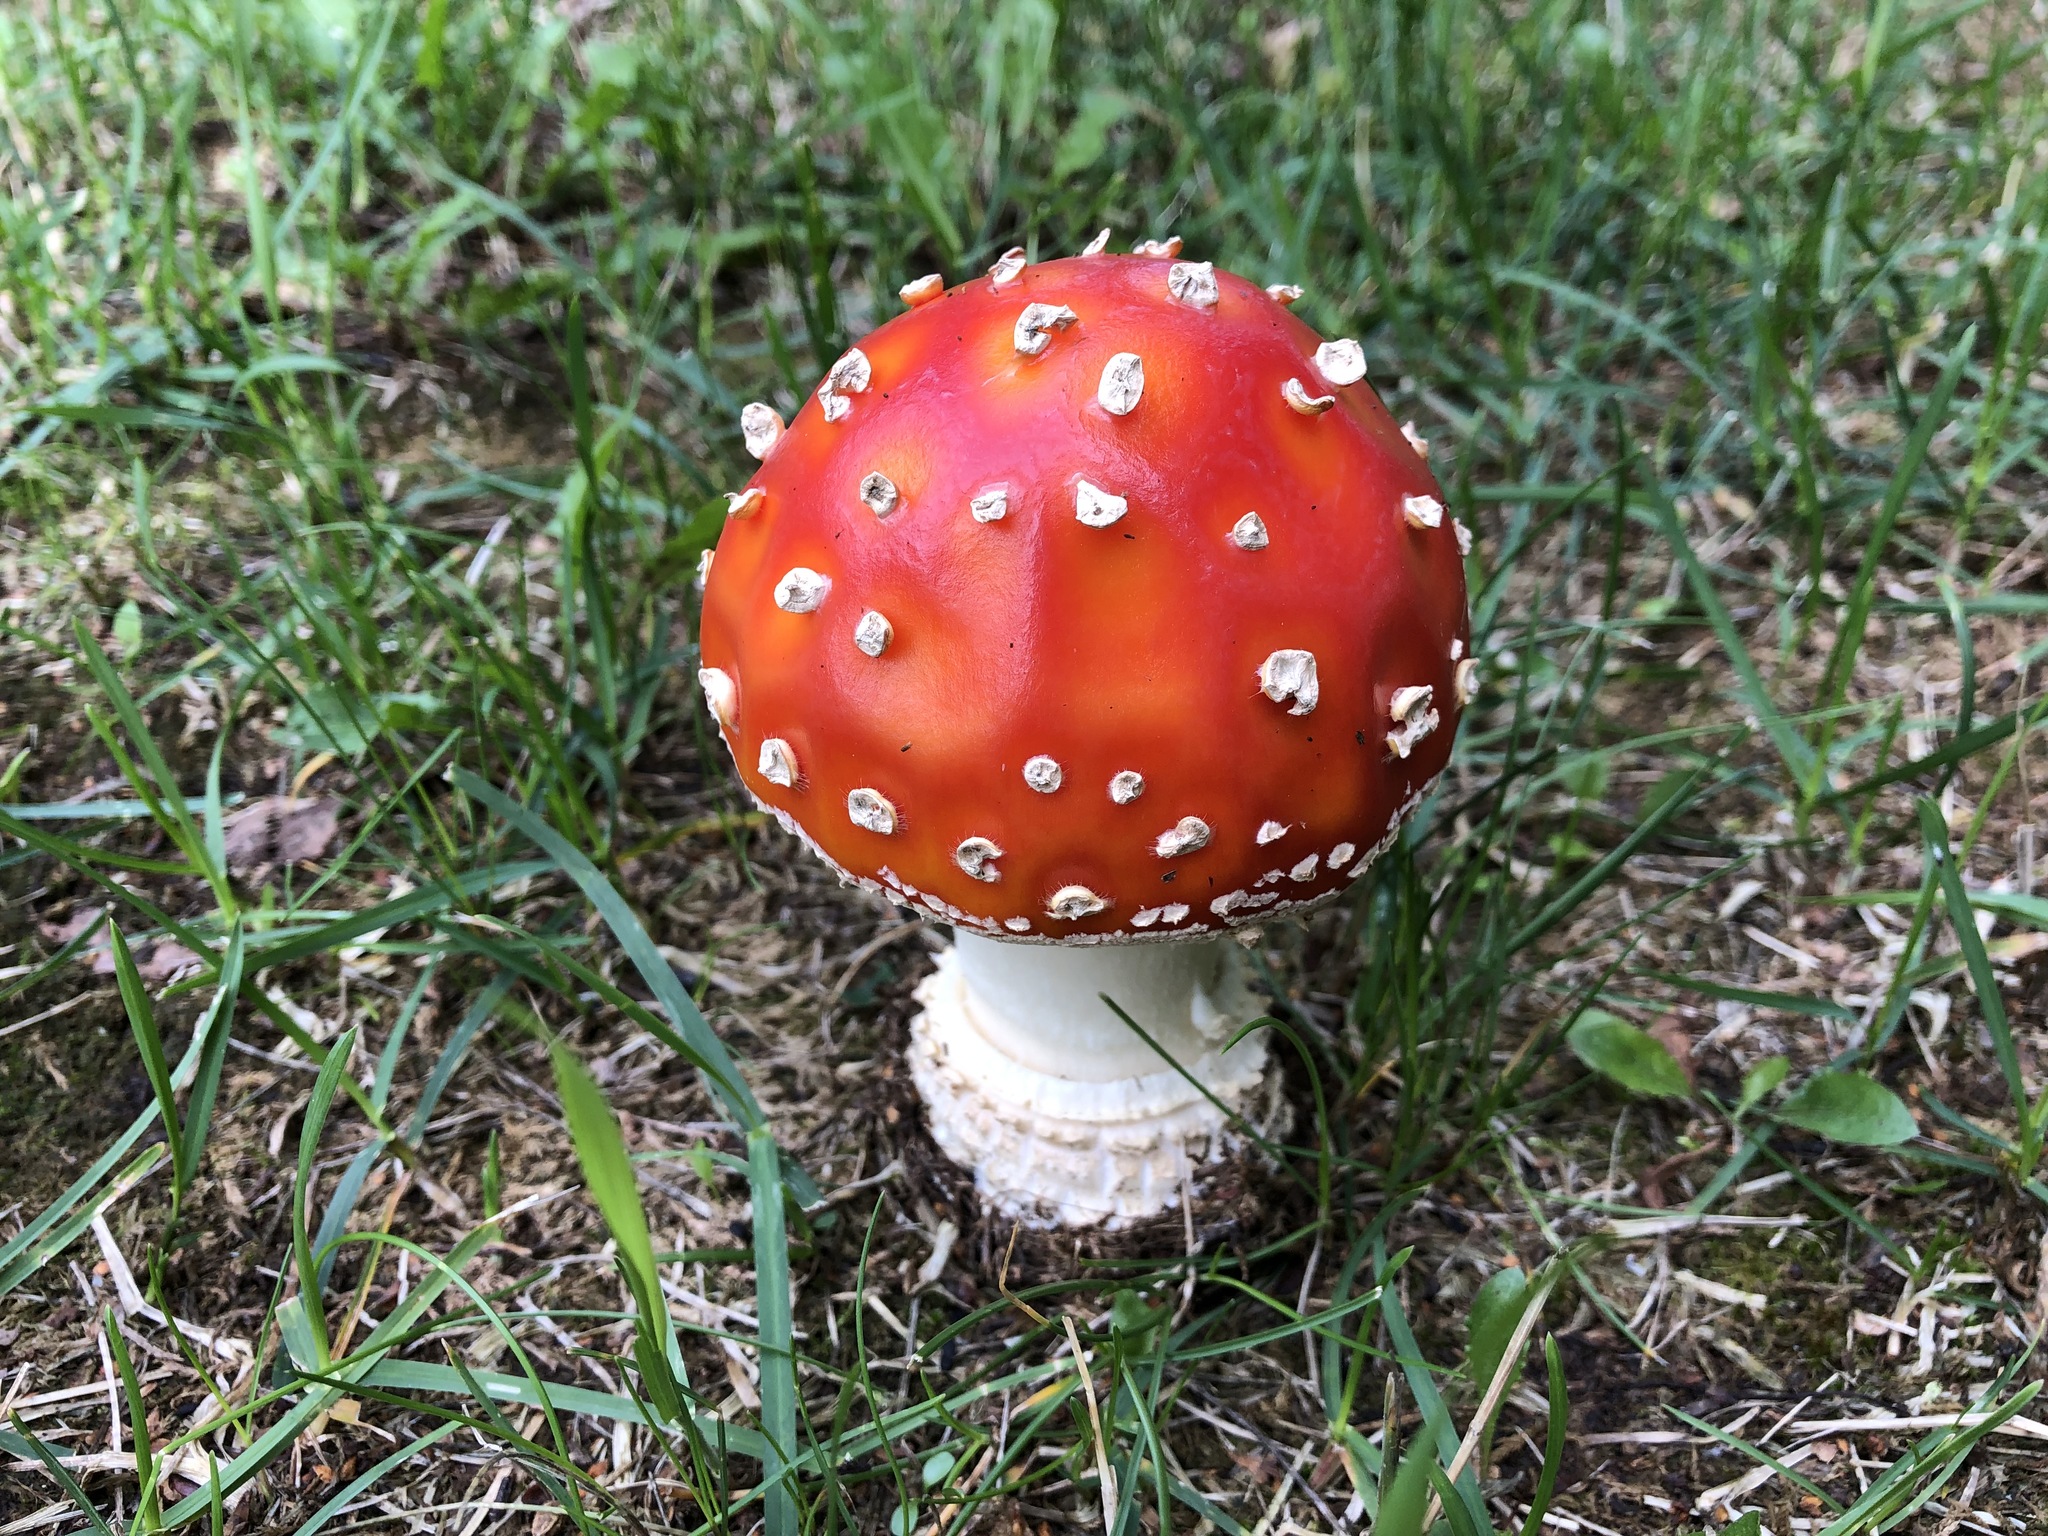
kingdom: Fungi
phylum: Basidiomycota
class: Agaricomycetes
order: Agaricales
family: Amanitaceae
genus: Amanita
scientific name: Amanita muscaria
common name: Fly agaric
